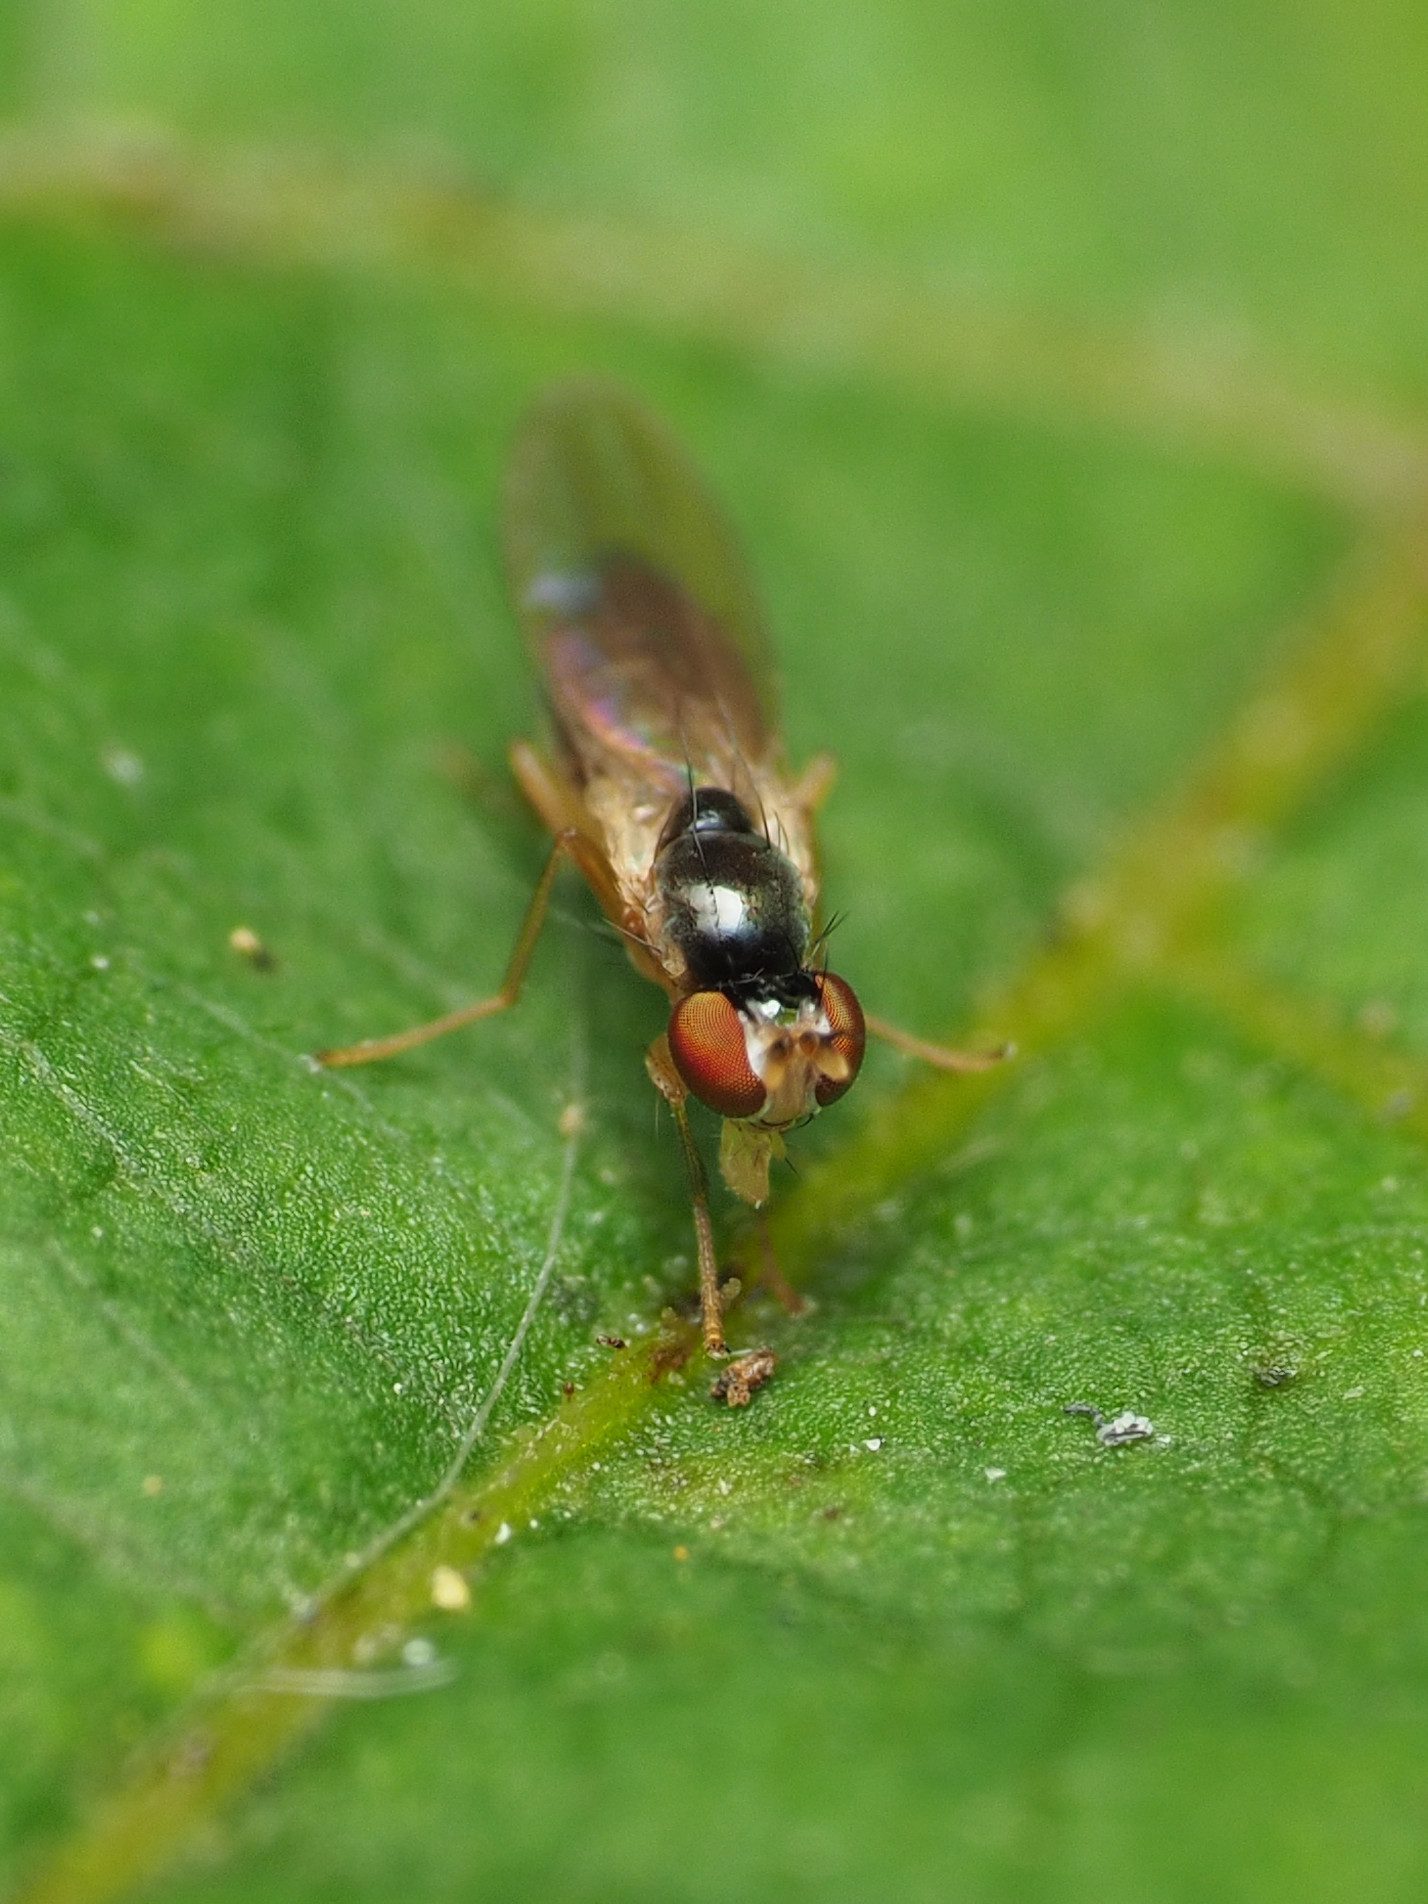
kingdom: Animalia
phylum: Arthropoda
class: Insecta
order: Diptera
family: Anthomyzidae
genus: Mumetopia
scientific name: Mumetopia occipitalis
